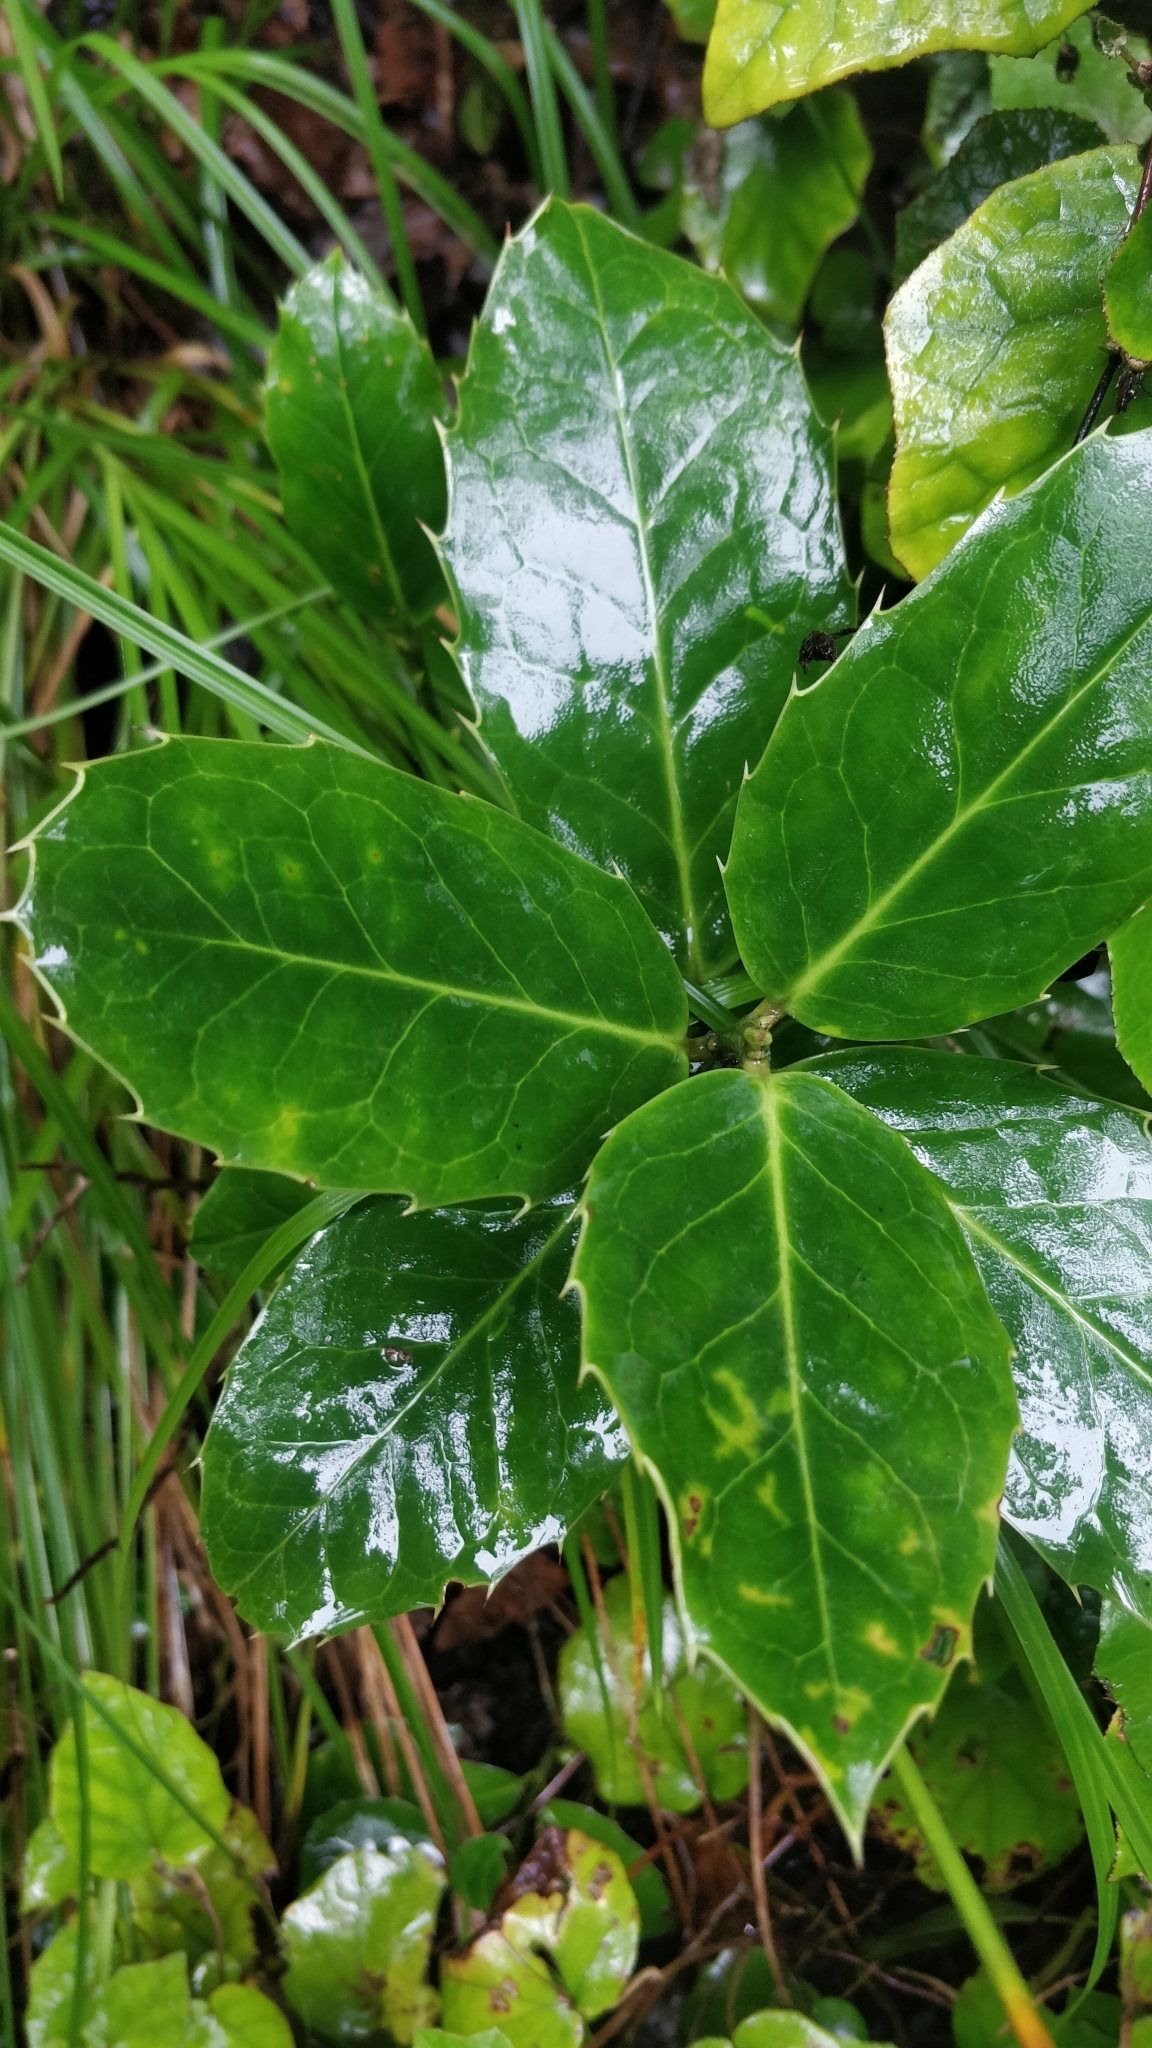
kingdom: Plantae
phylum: Tracheophyta
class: Magnoliopsida
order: Aquifoliales
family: Aquifoliaceae
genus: Ilex
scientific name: Ilex perado
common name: Madeira holly
